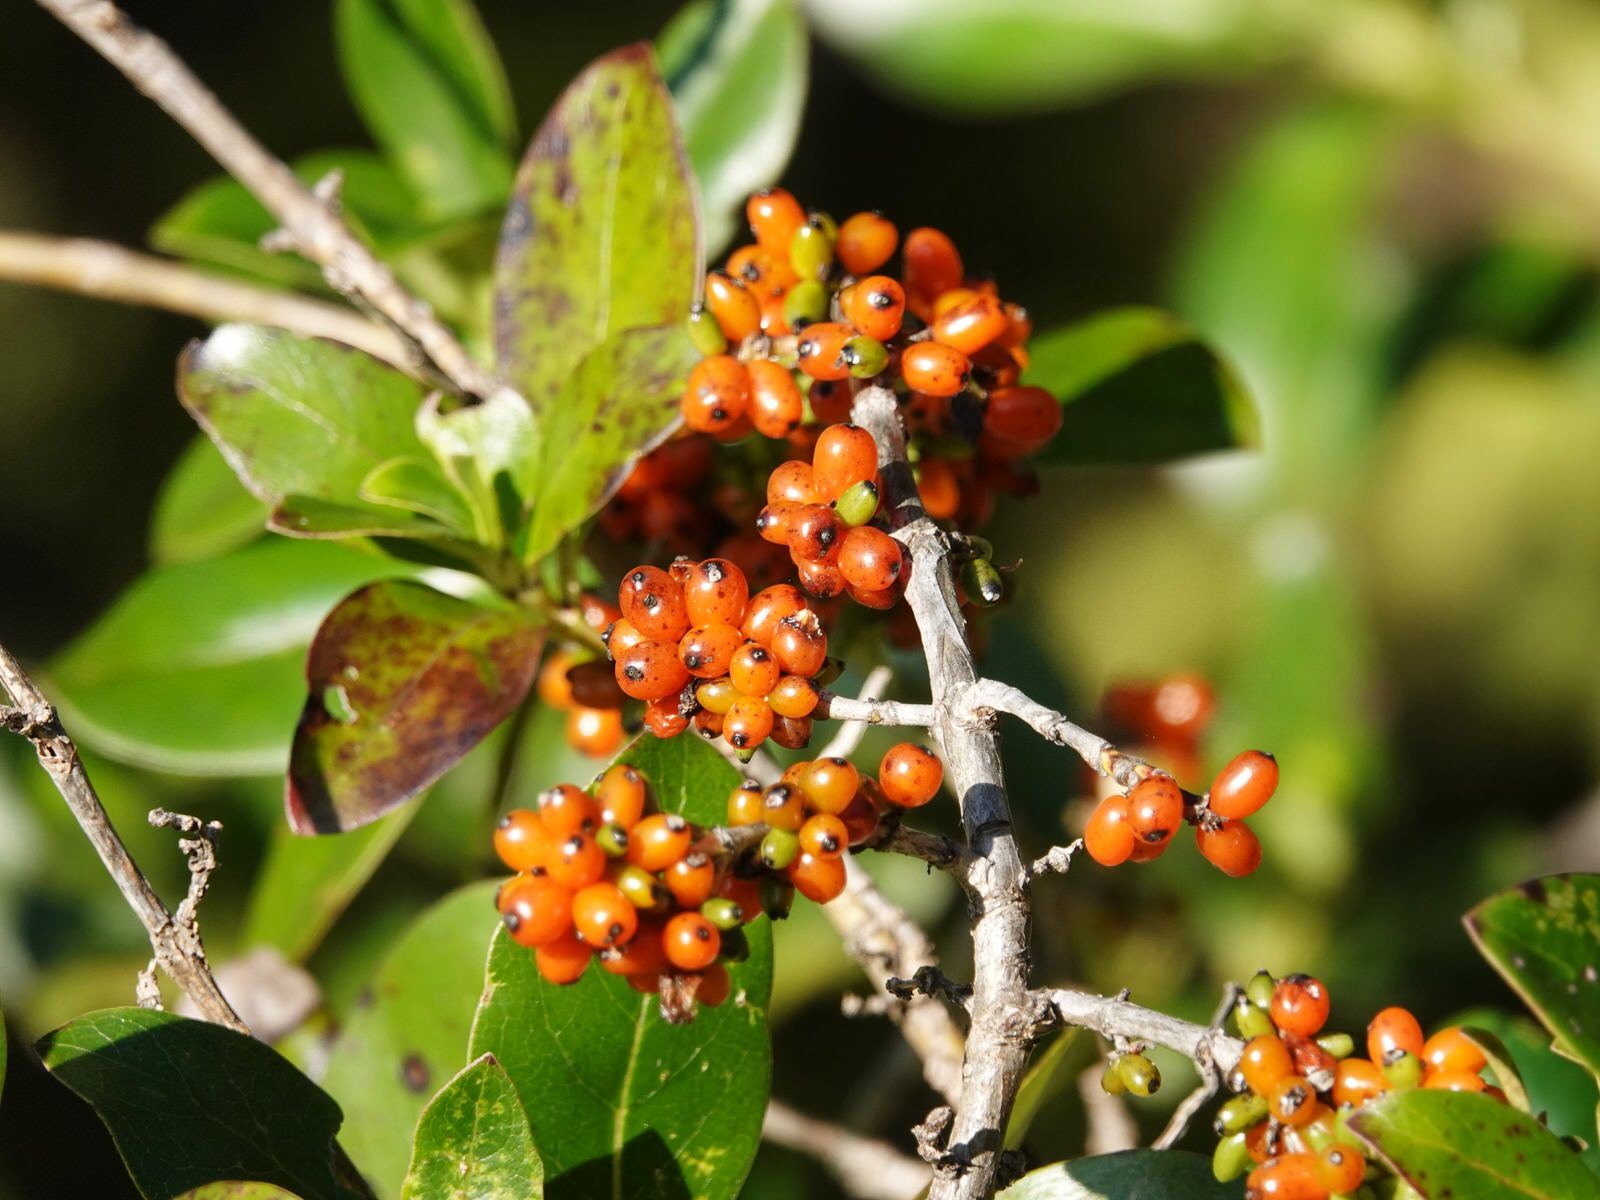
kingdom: Plantae
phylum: Tracheophyta
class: Magnoliopsida
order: Gentianales
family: Rubiaceae
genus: Coprosma
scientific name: Coprosma robusta
